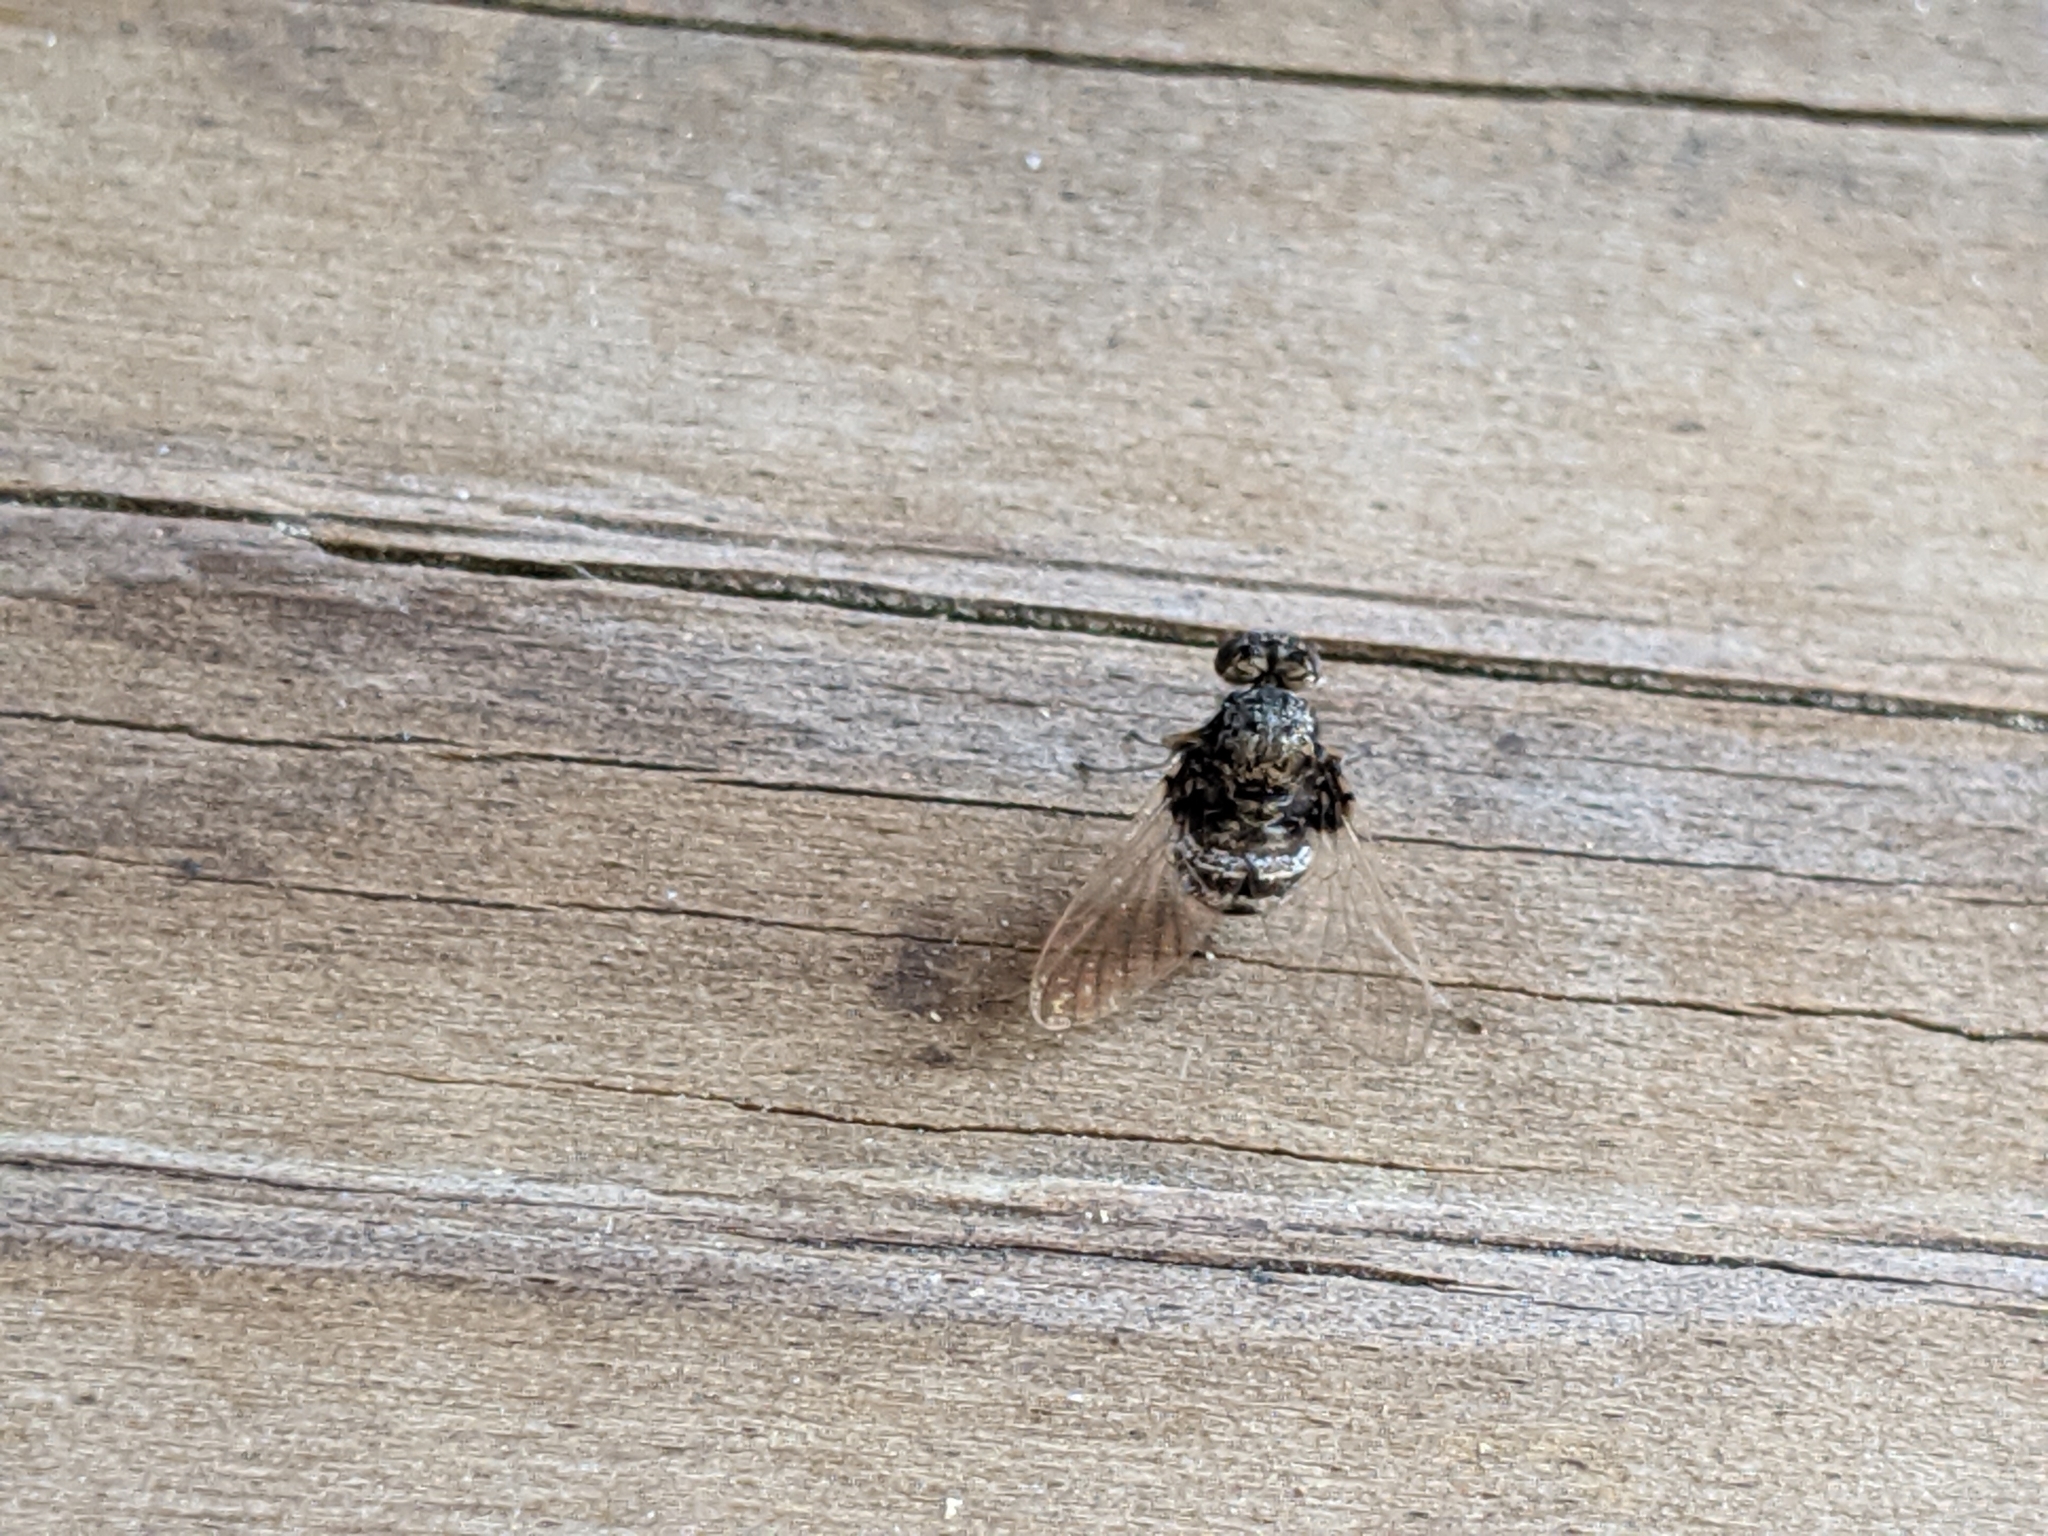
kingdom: Animalia
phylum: Arthropoda
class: Insecta
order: Diptera
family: Rhagionidae
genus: Chrysopilus
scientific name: Chrysopilus basilaris
